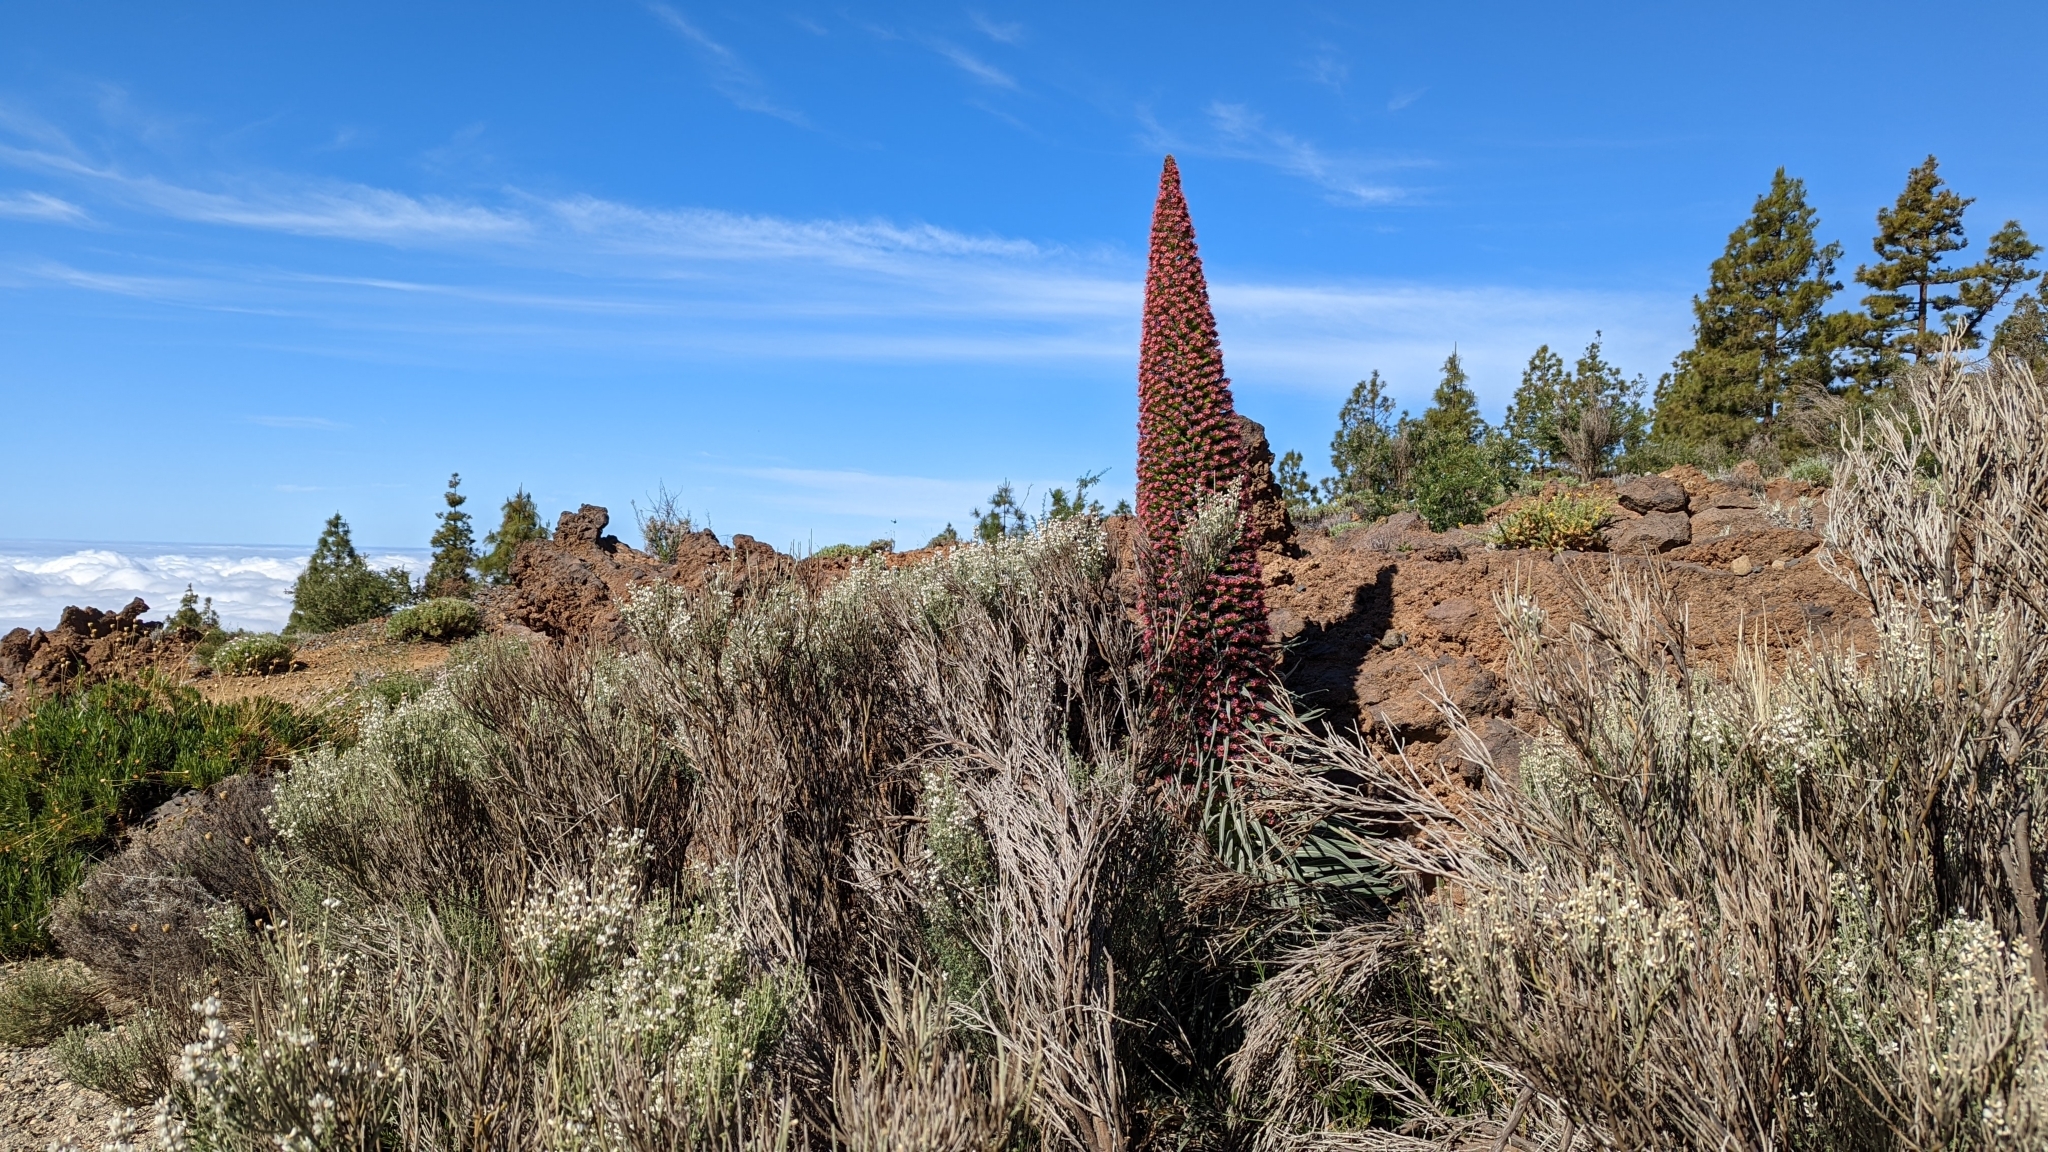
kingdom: Plantae
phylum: Tracheophyta
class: Magnoliopsida
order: Boraginales
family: Boraginaceae
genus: Echium
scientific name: Echium wildpretii
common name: Tower-of-jewels
